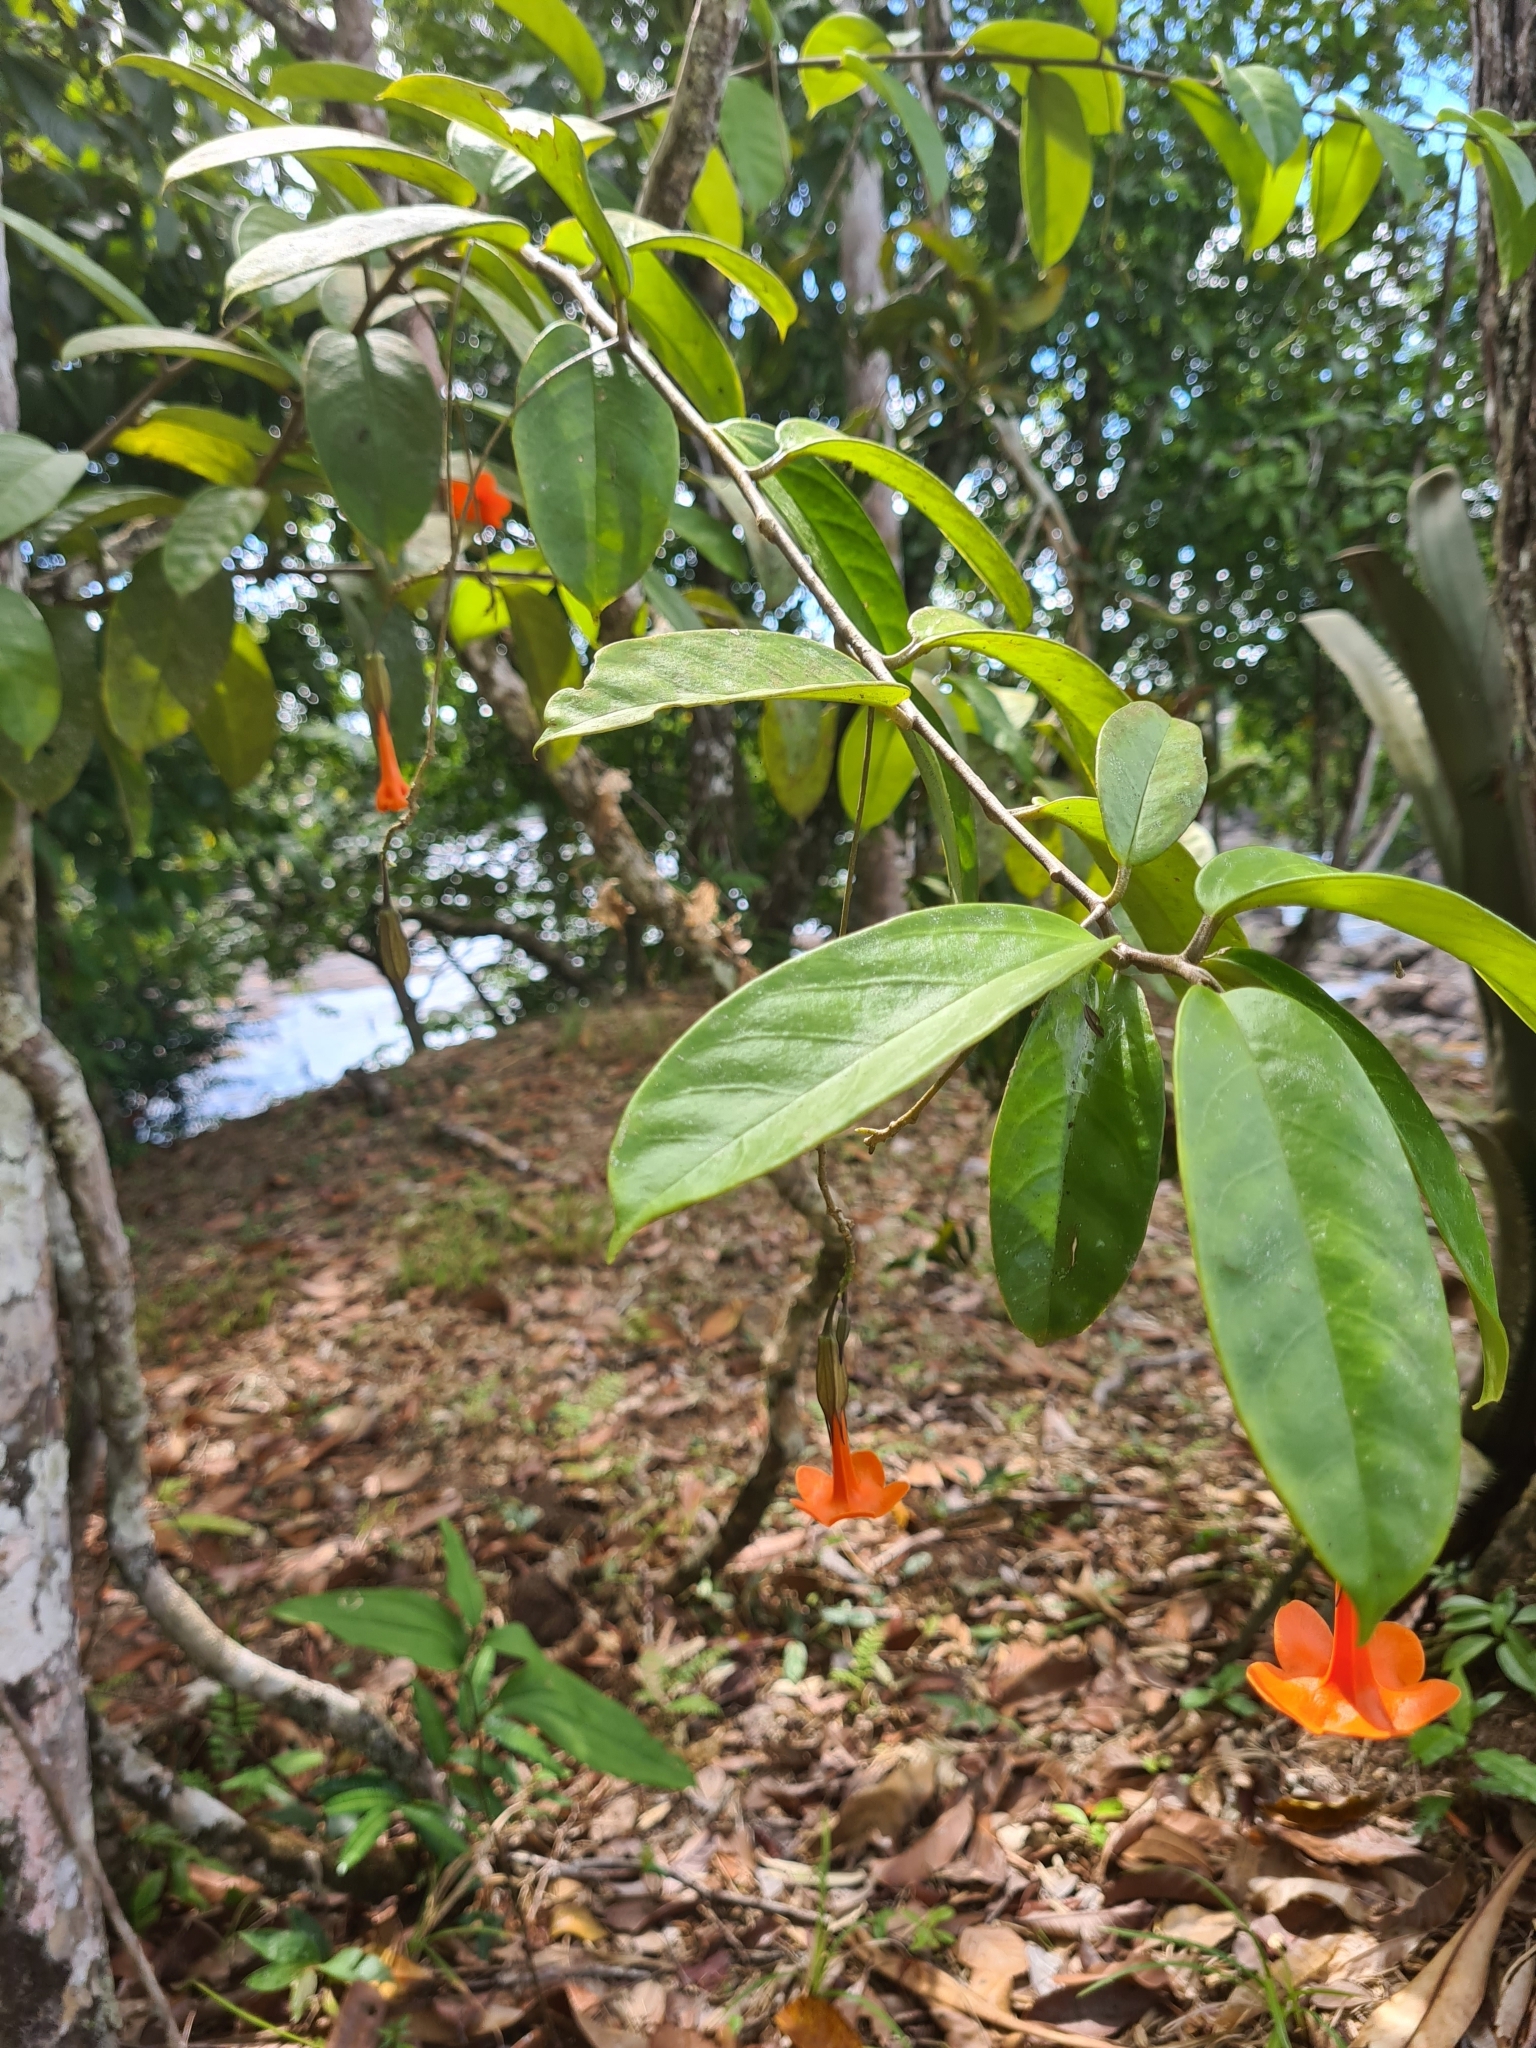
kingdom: Plantae
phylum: Tracheophyta
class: Magnoliopsida
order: Solanales
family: Solanaceae
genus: Markea
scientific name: Markea coccinea
